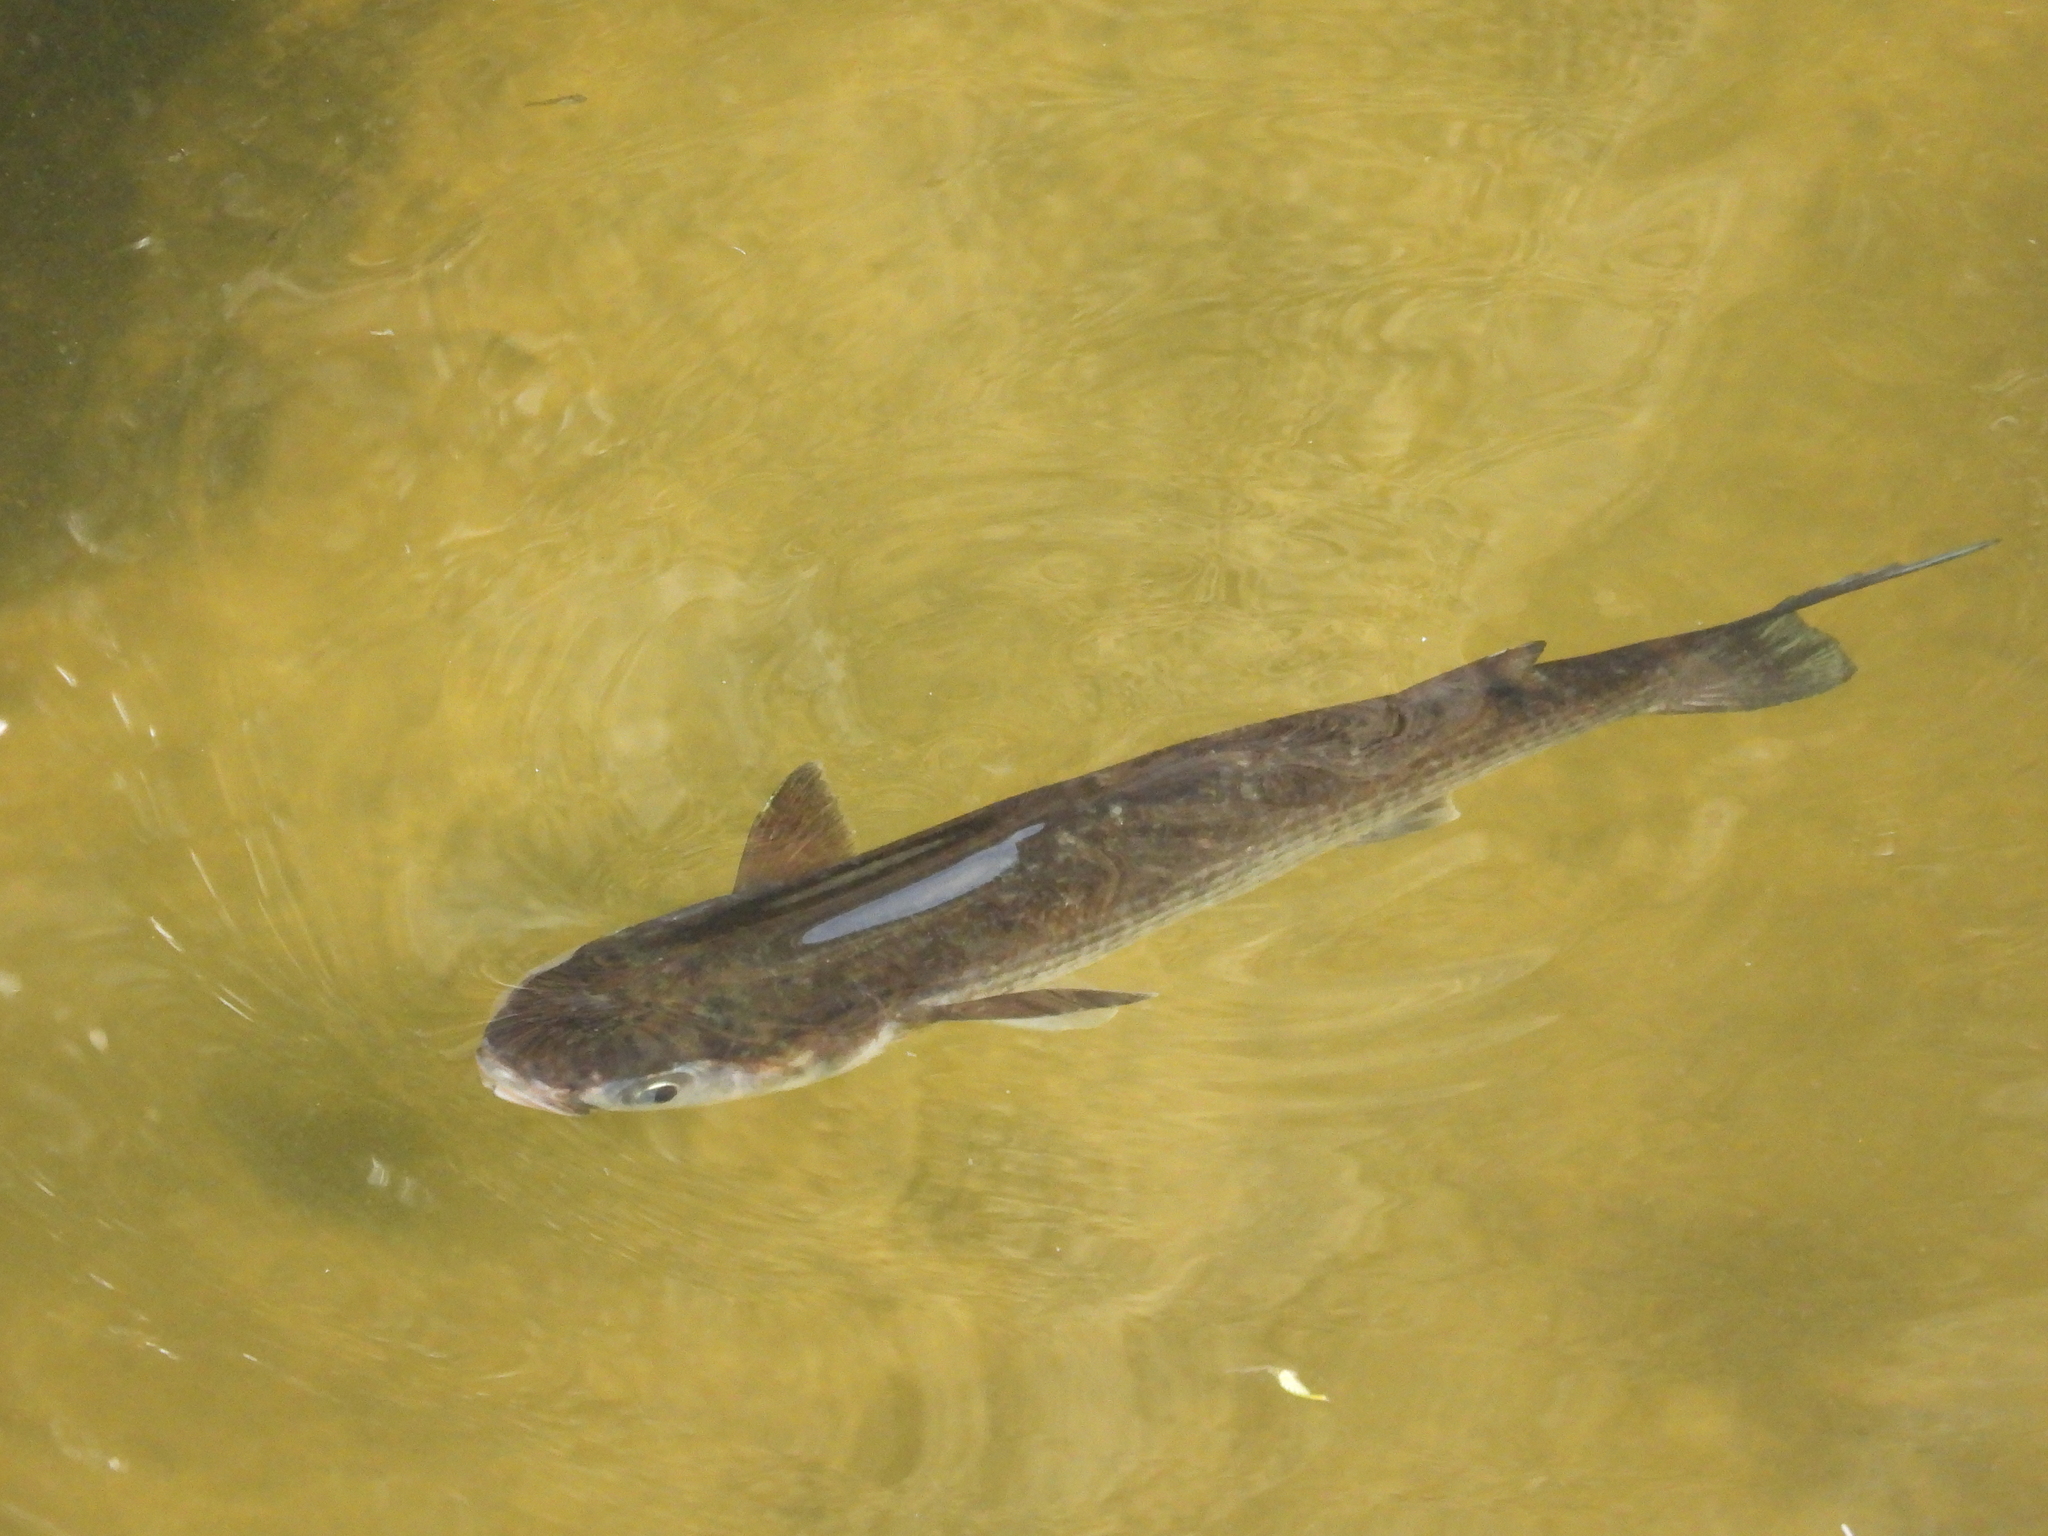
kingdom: Animalia
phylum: Chordata
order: Mugiliformes
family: Mugilidae
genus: Mugil
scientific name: Mugil cephalus
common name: Grey mullet
